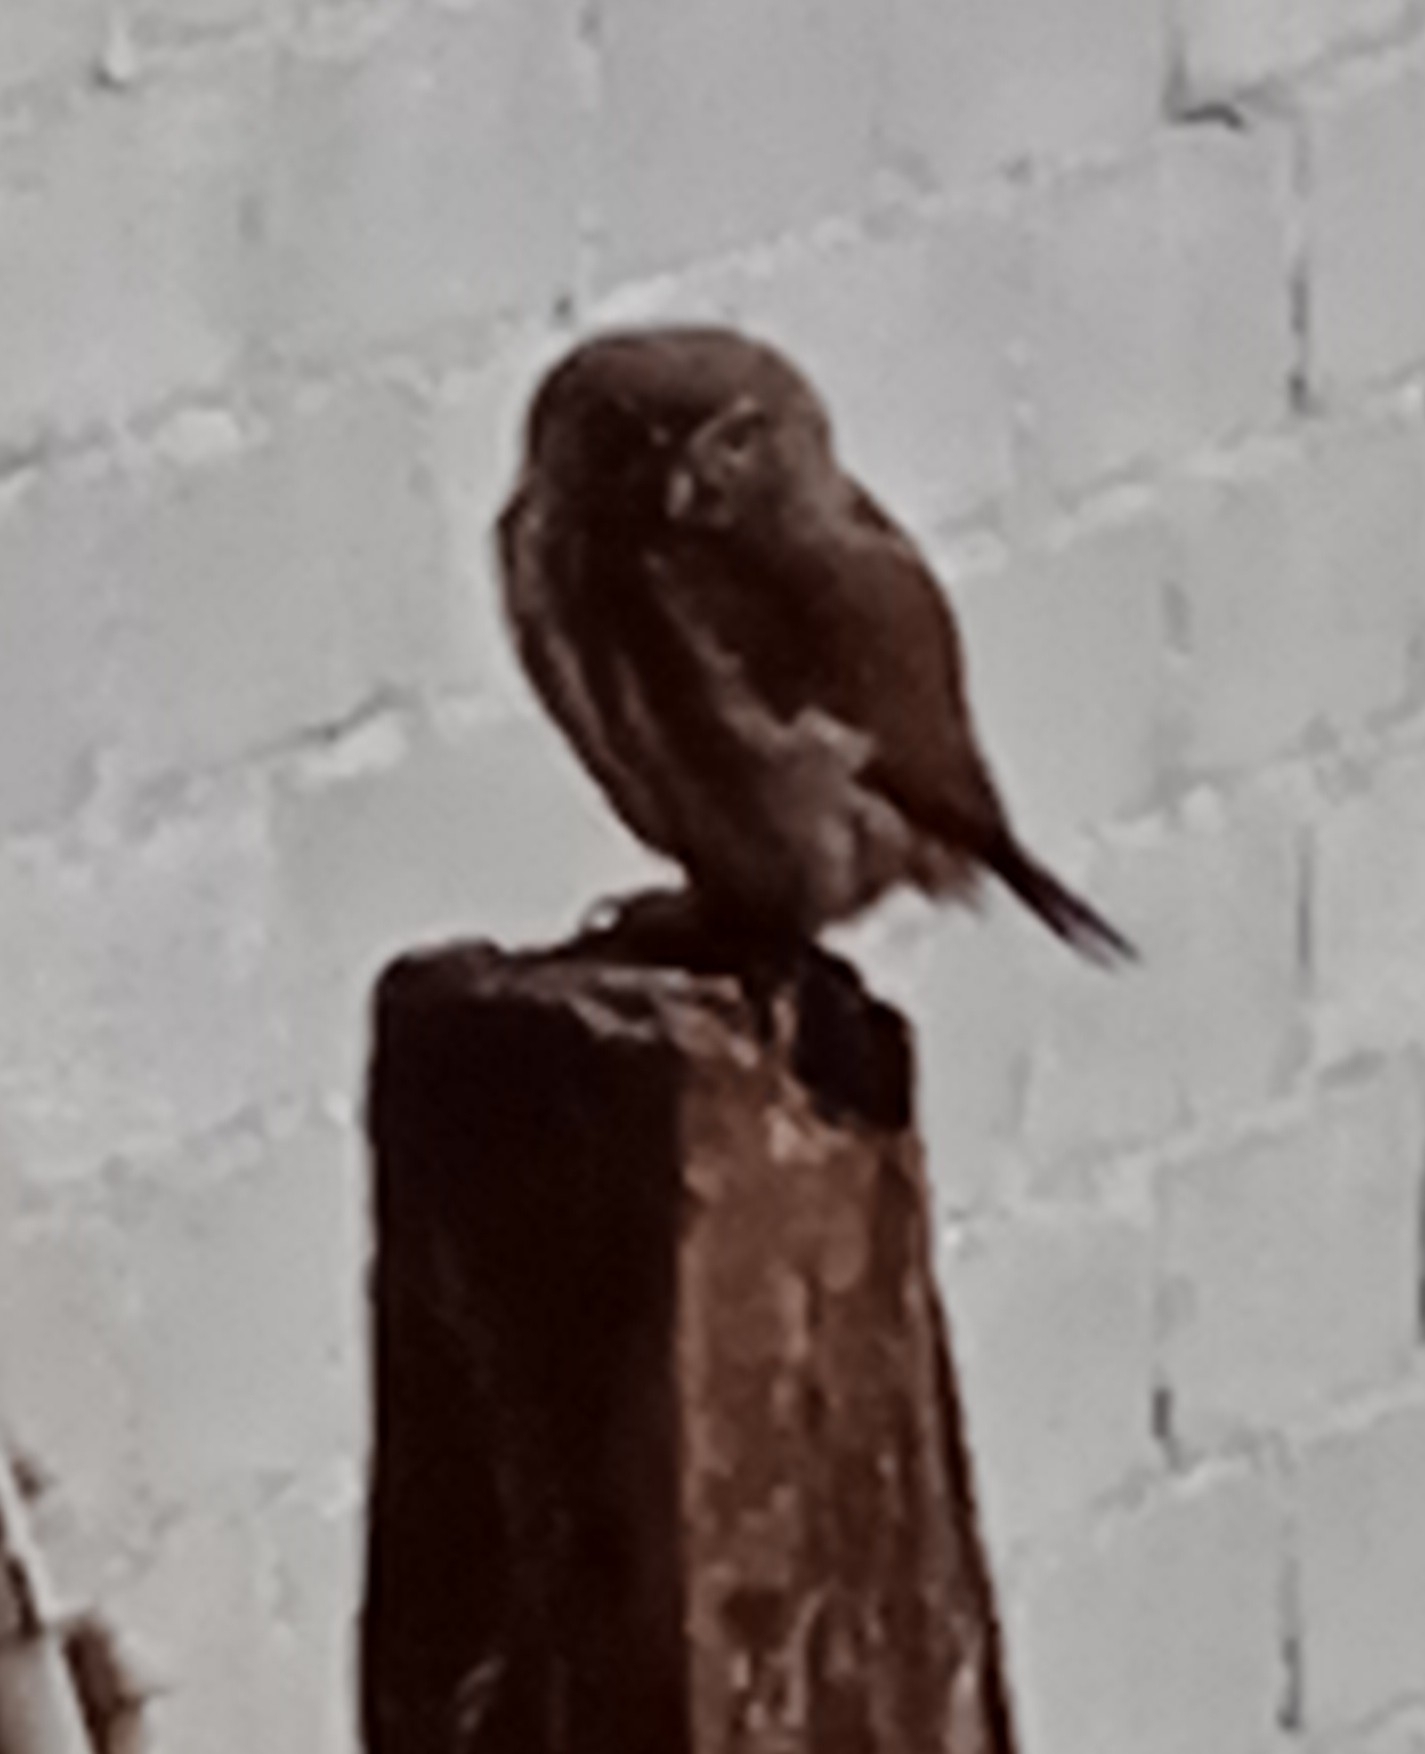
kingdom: Animalia
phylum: Chordata
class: Aves
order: Strigiformes
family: Strigidae
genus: Glaucidium
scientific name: Glaucidium brasilianum
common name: Ferruginous pygmy-owl
